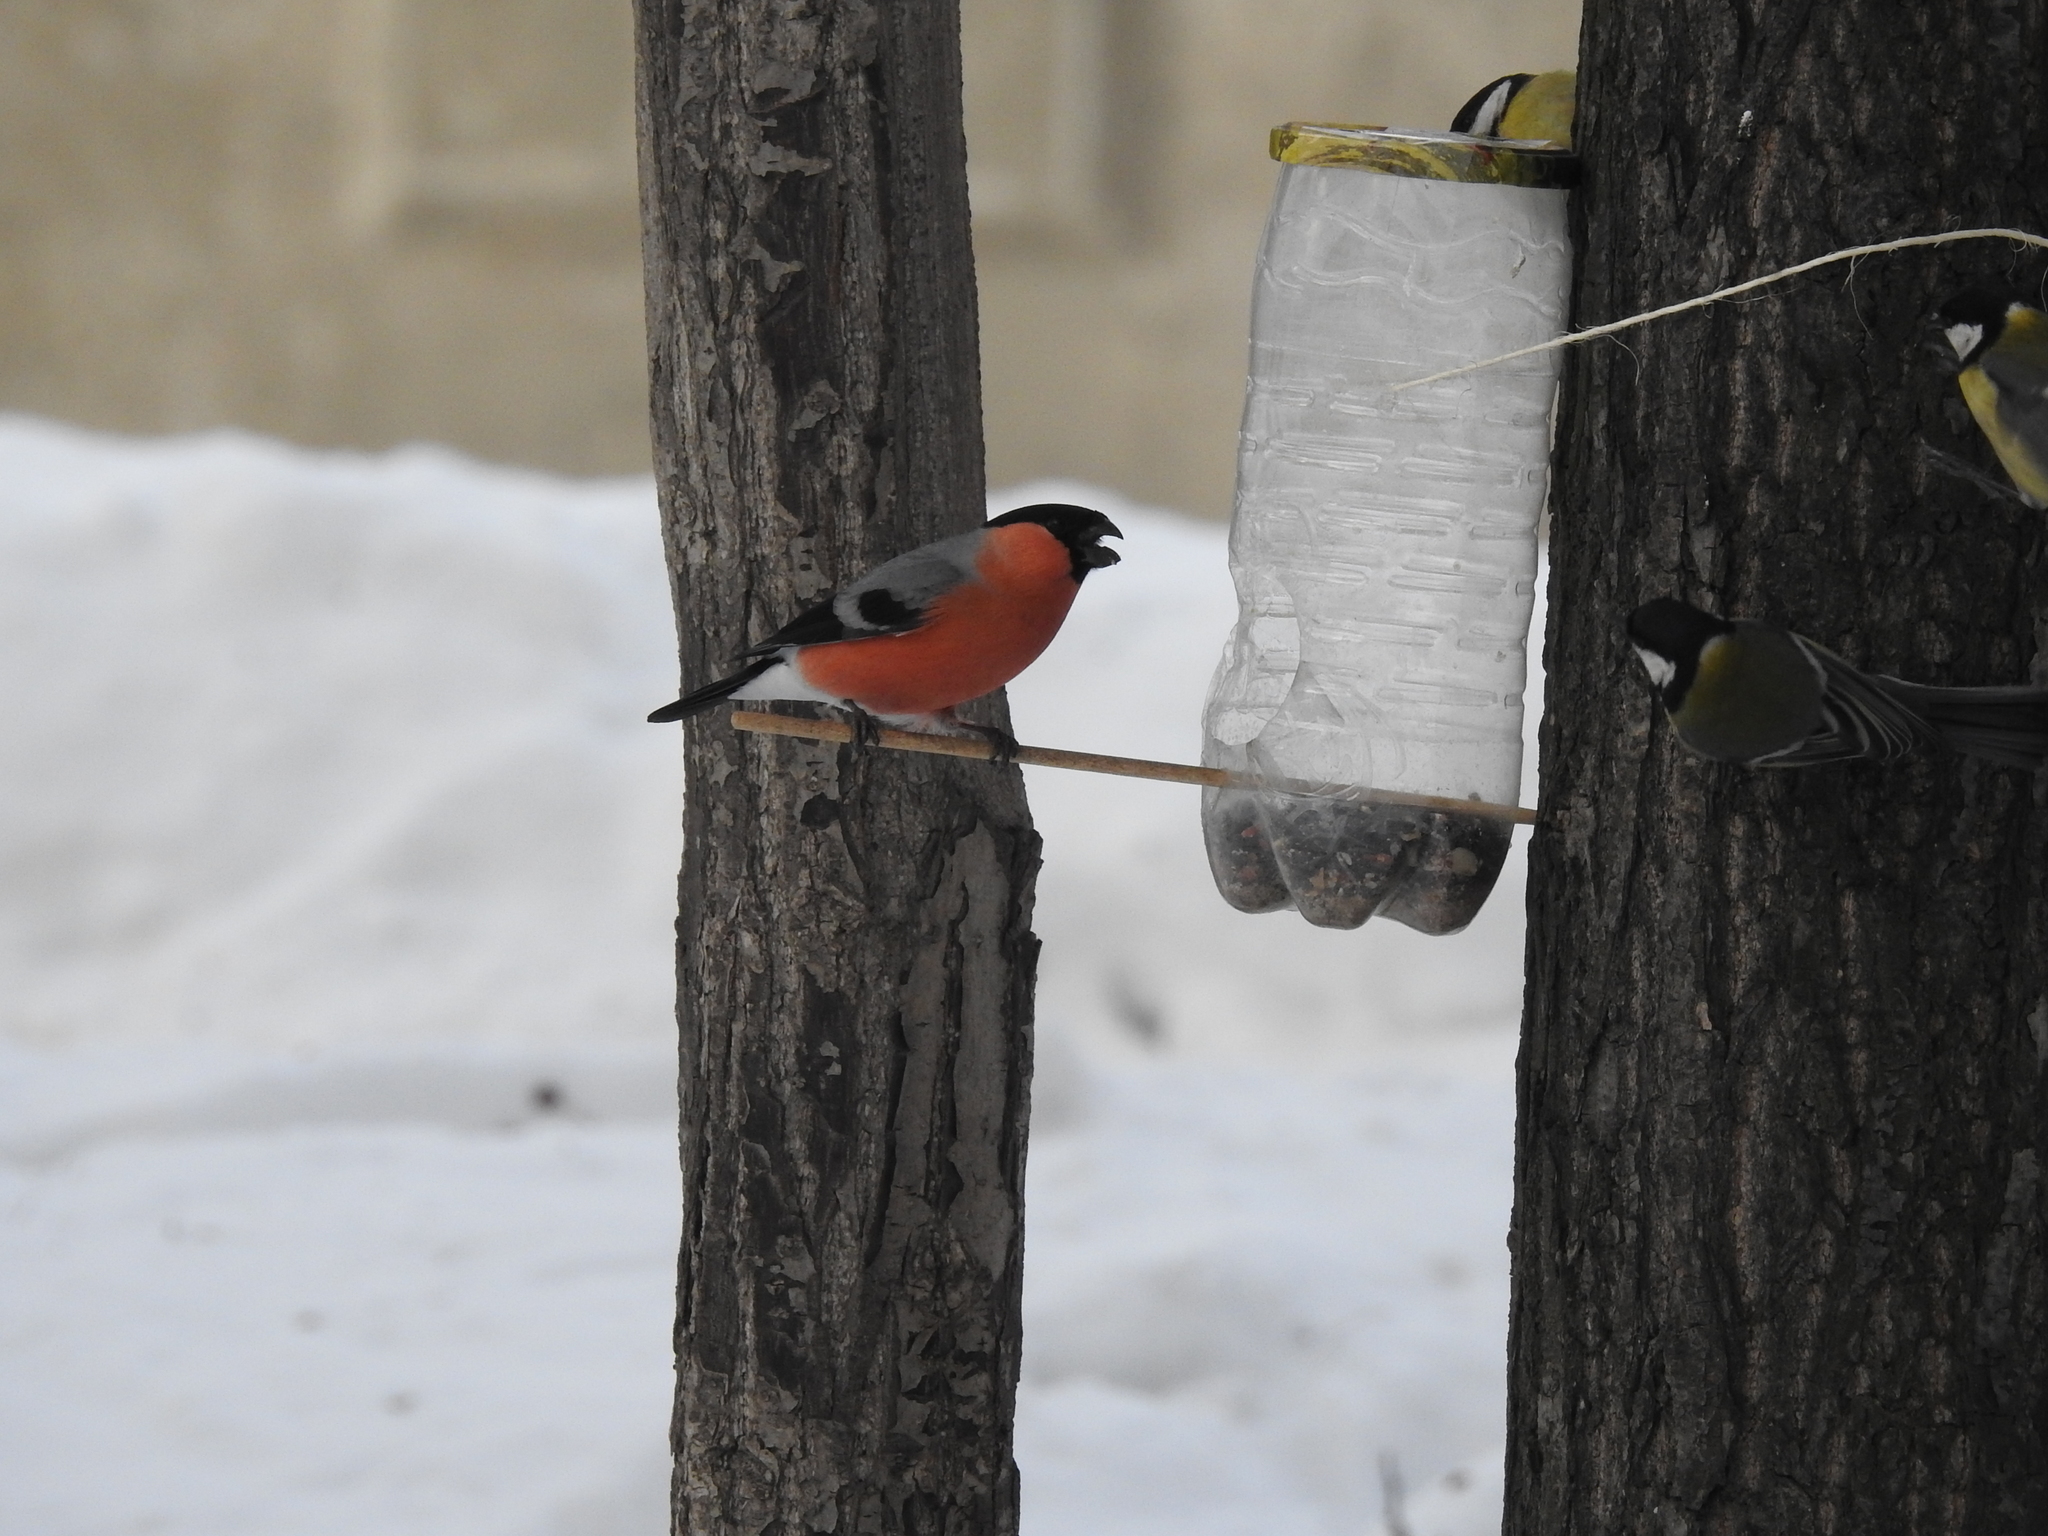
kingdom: Animalia
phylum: Chordata
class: Aves
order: Passeriformes
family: Fringillidae
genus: Pyrrhula
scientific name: Pyrrhula pyrrhula
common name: Eurasian bullfinch
